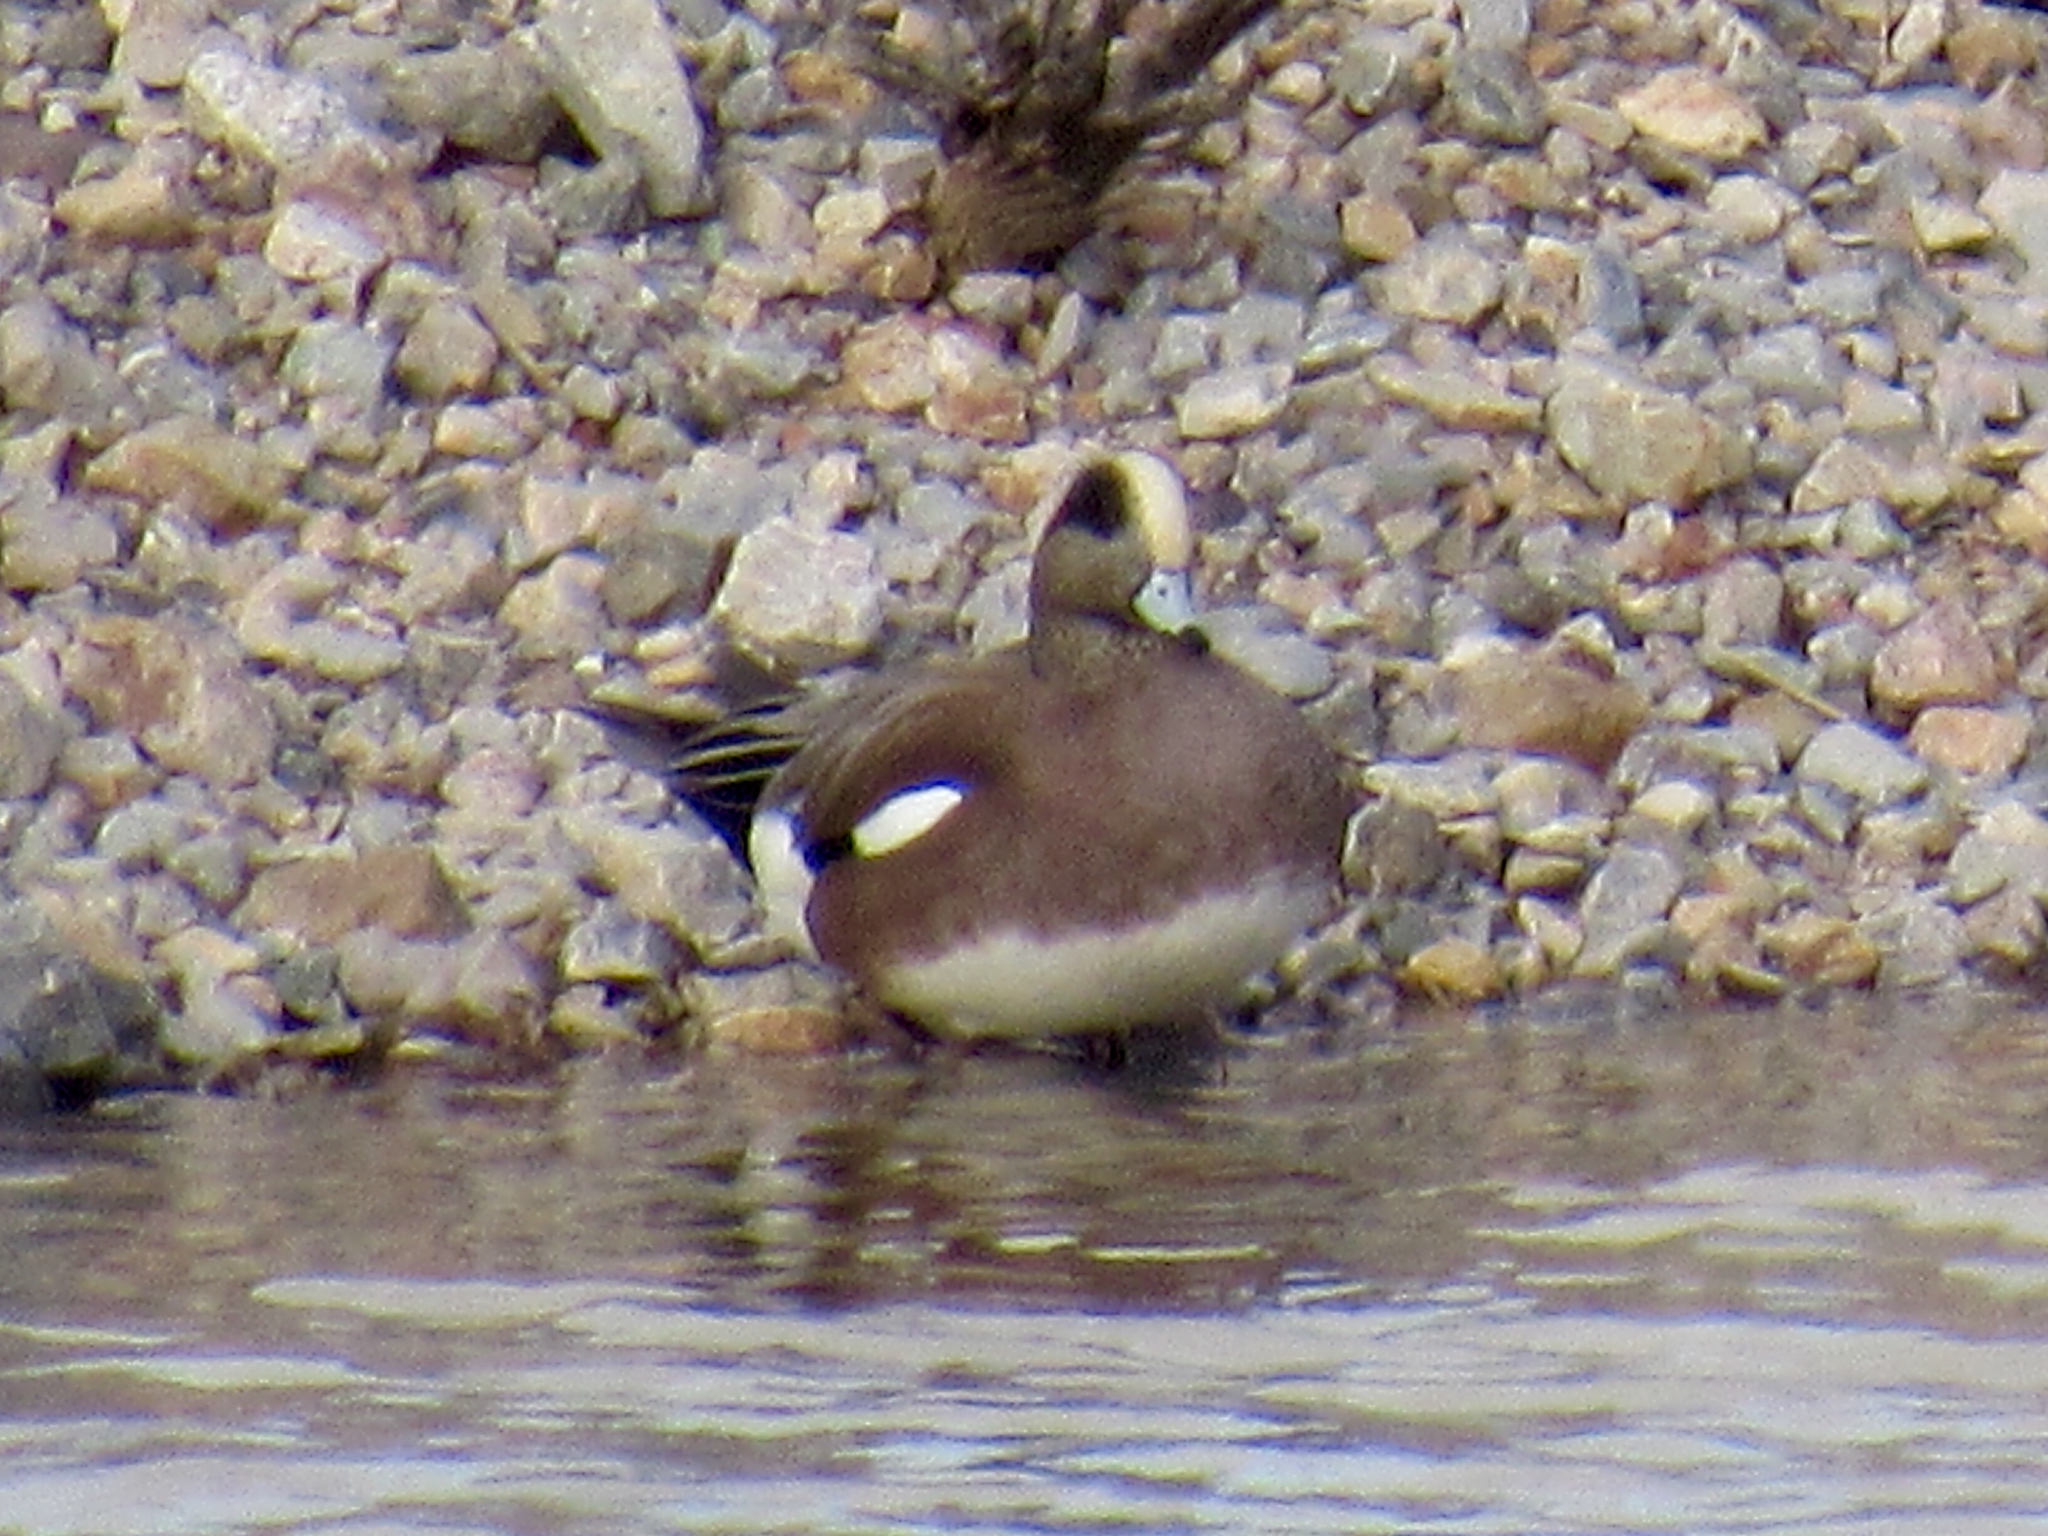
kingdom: Animalia
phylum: Chordata
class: Aves
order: Anseriformes
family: Anatidae
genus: Mareca
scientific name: Mareca americana
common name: American wigeon
